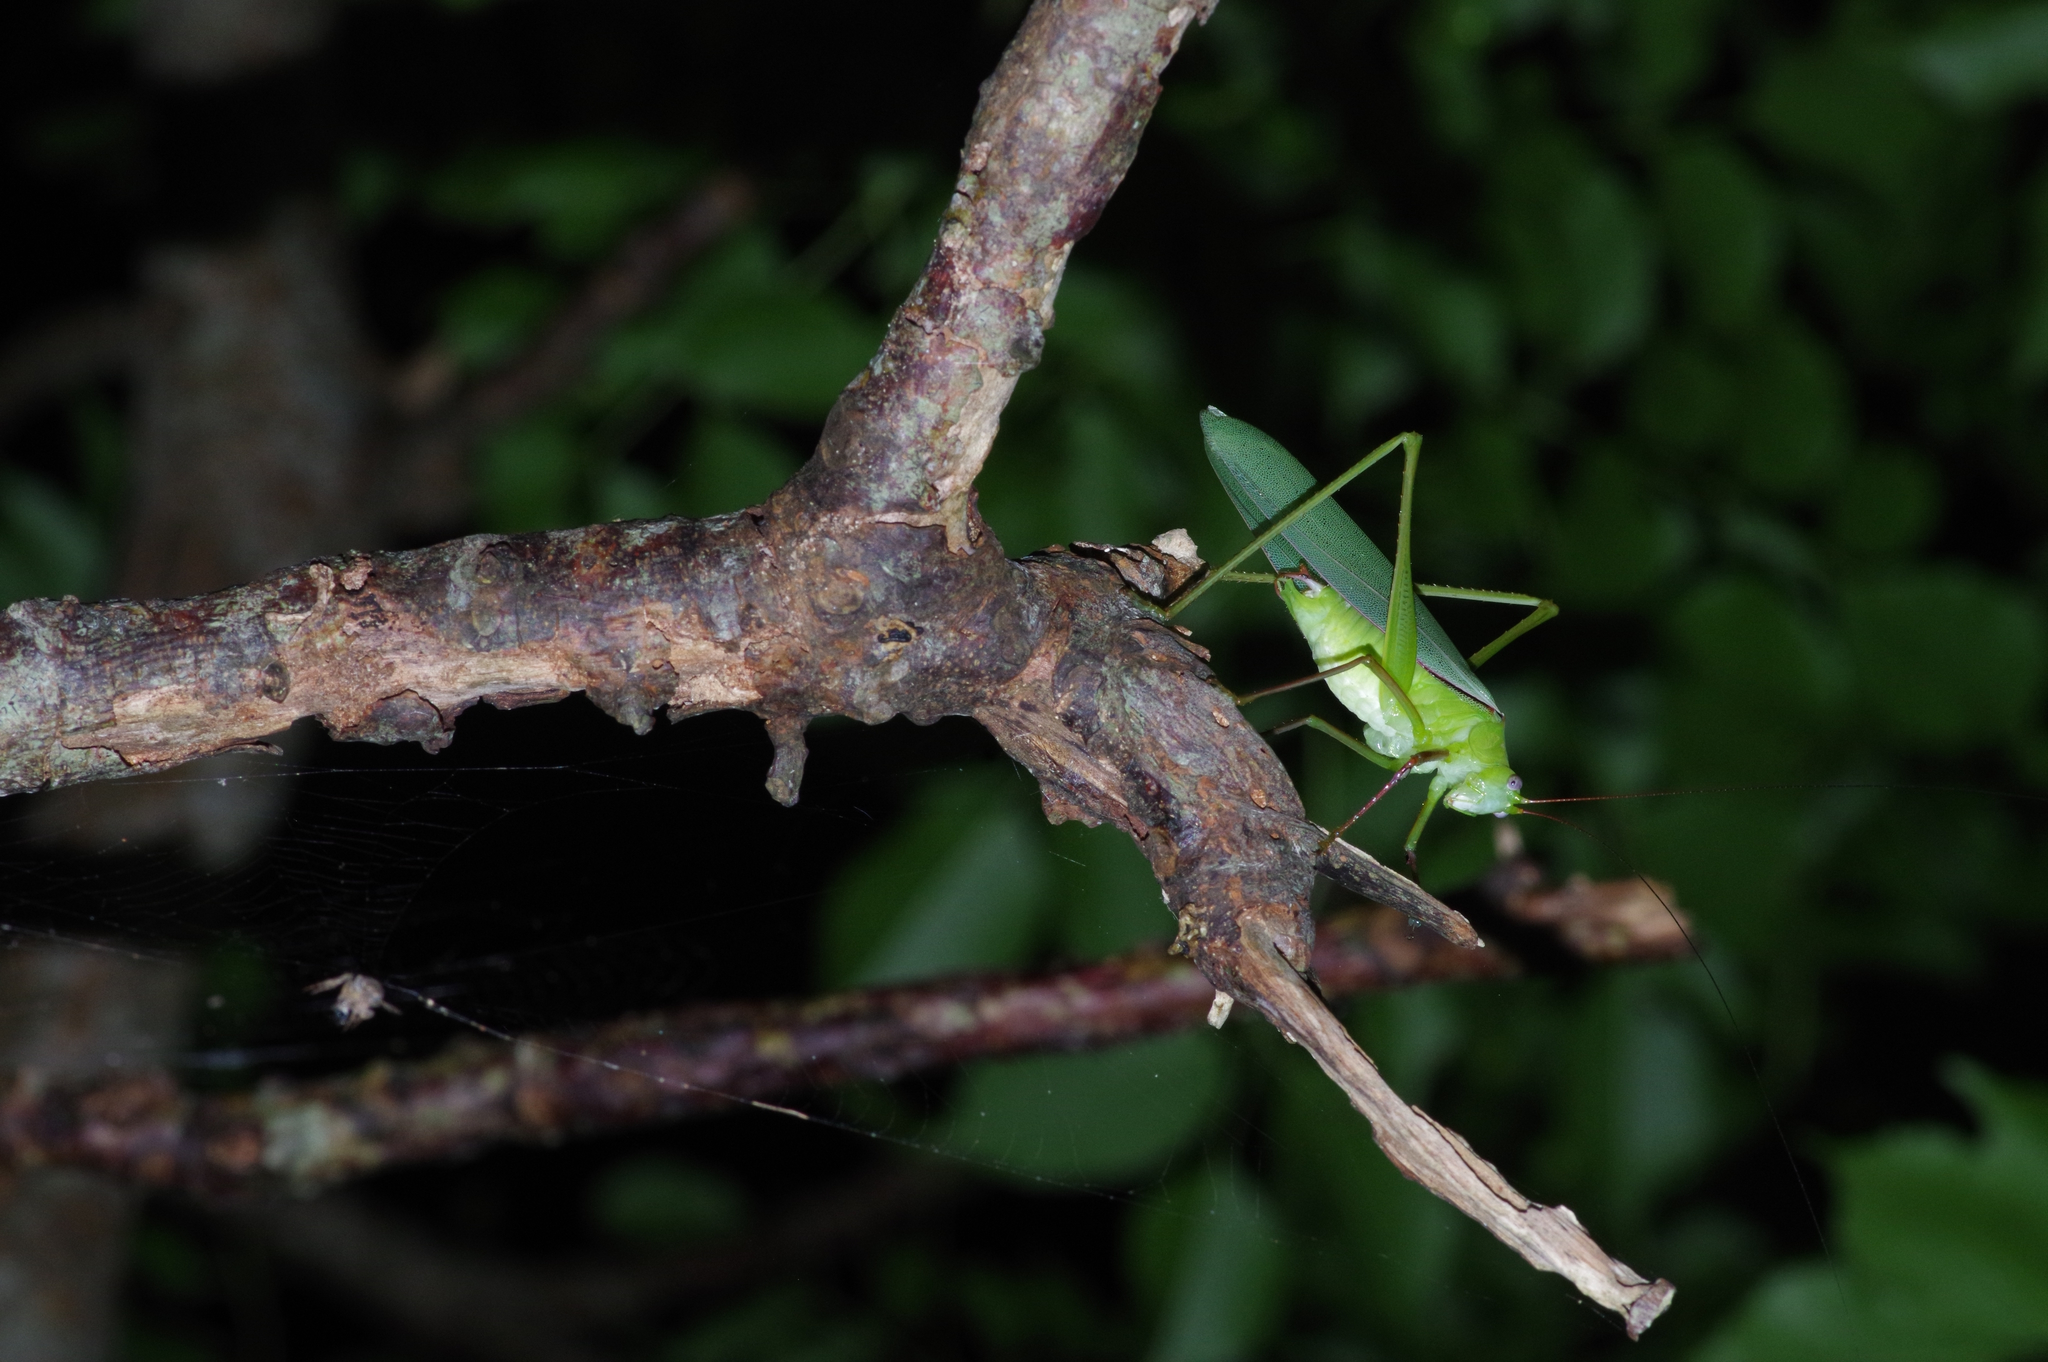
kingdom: Animalia
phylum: Arthropoda
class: Insecta
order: Orthoptera
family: Tettigoniidae
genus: Psyrana
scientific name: Psyrana ryukyuensis
